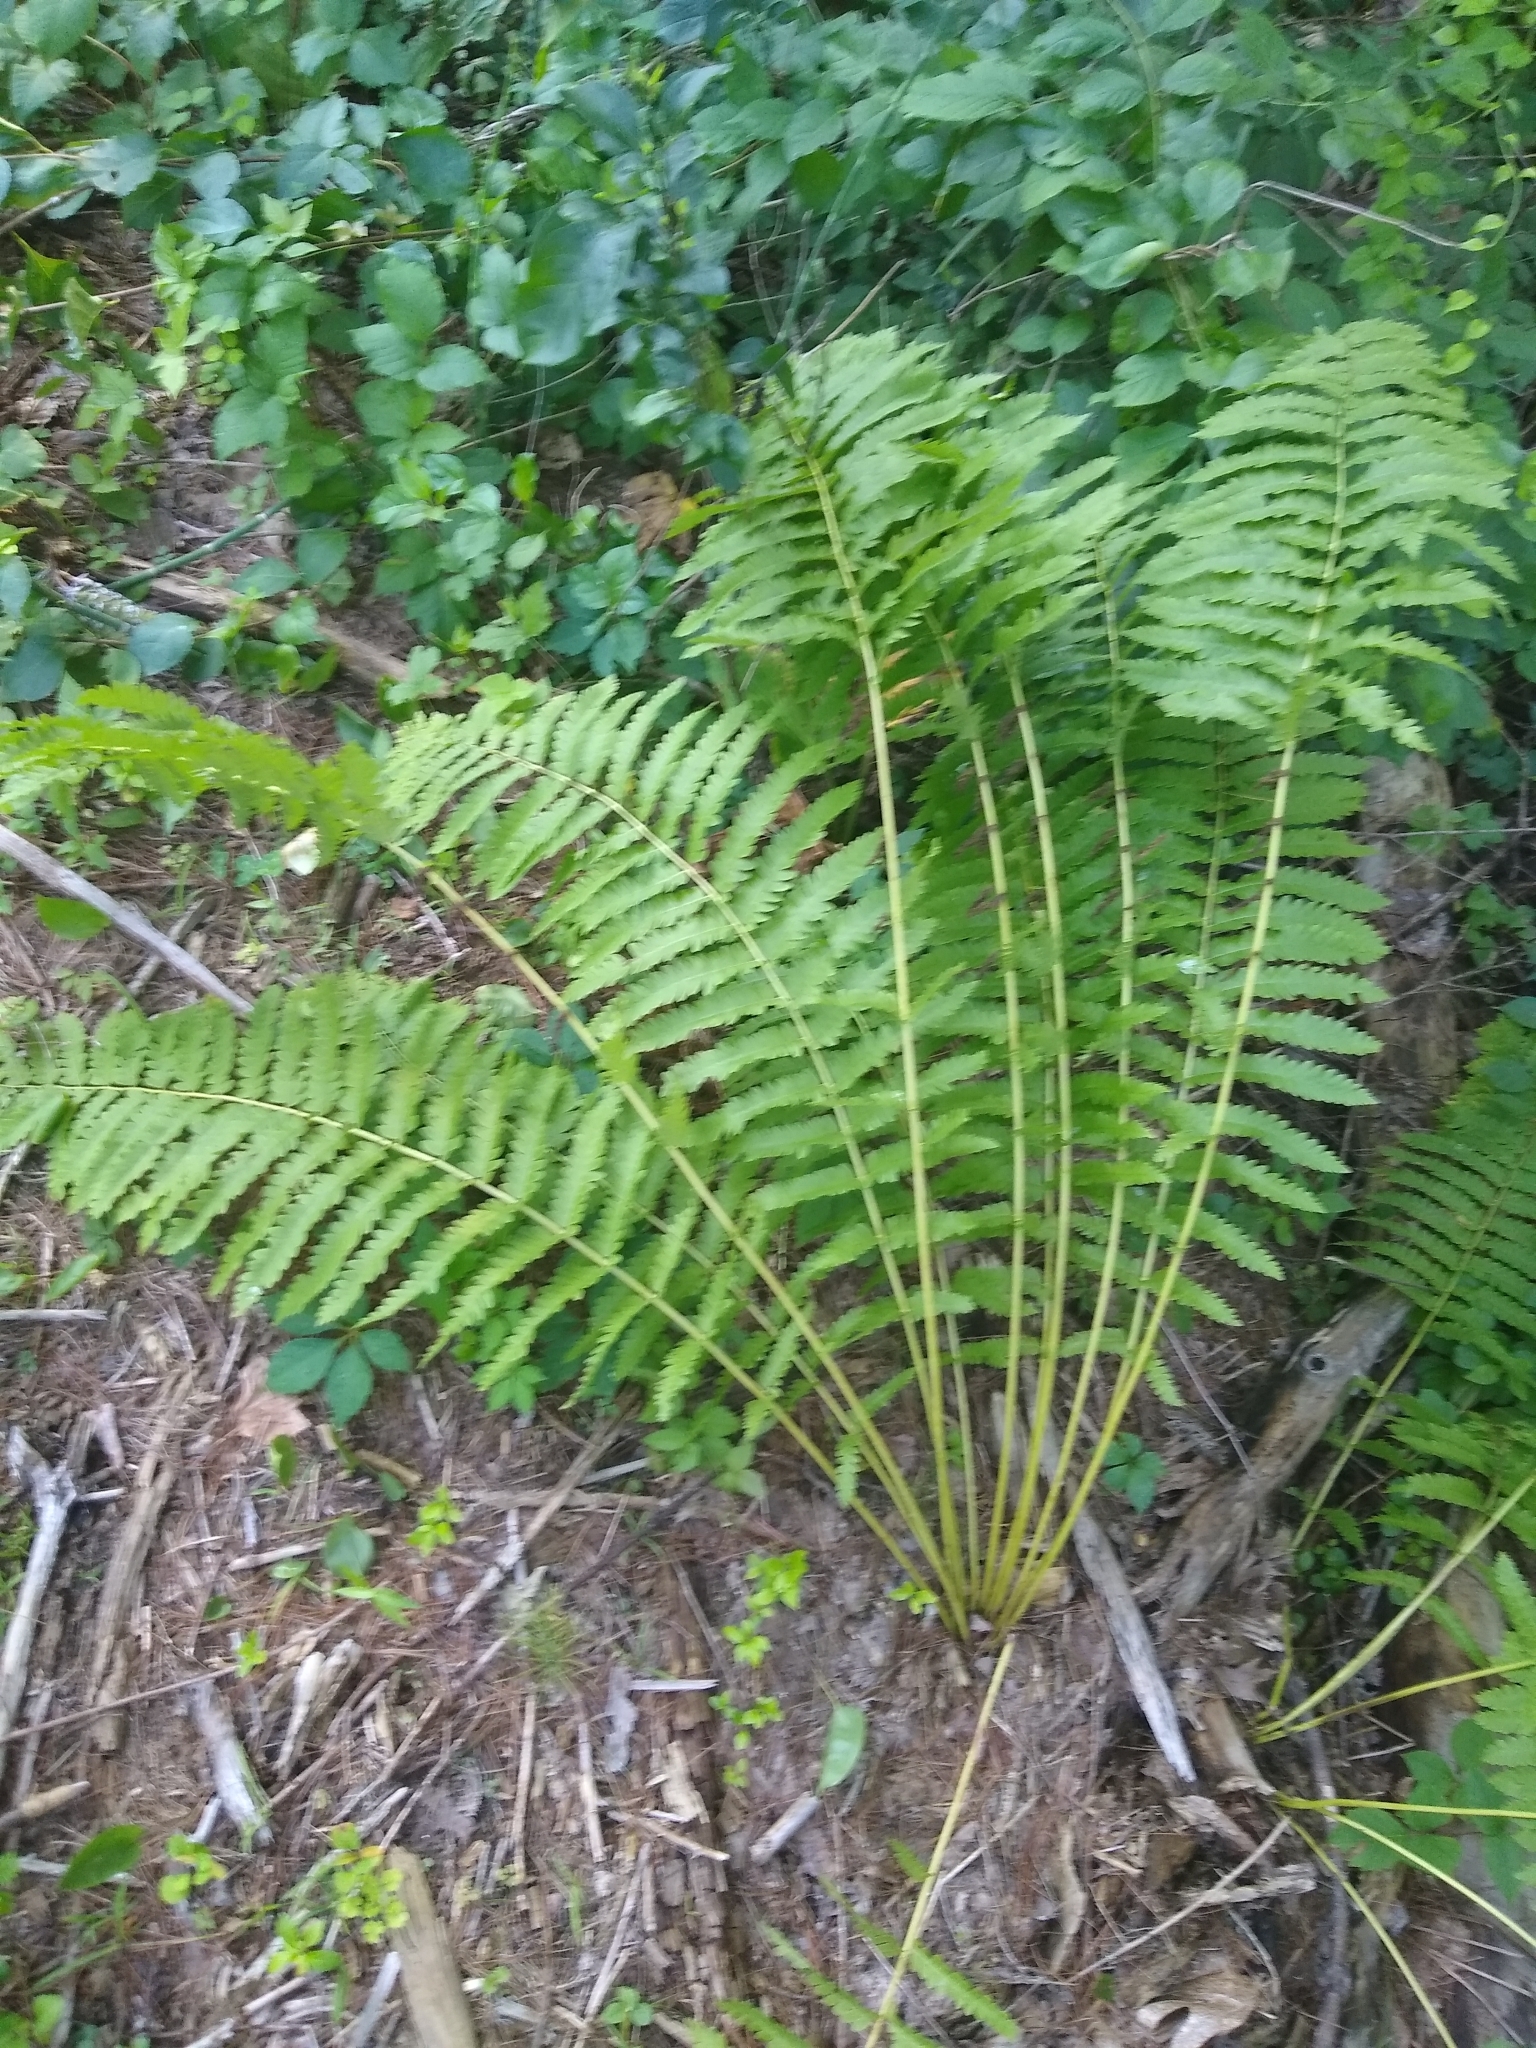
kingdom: Plantae
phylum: Tracheophyta
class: Polypodiopsida
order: Osmundales
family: Osmundaceae
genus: Claytosmunda
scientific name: Claytosmunda claytoniana
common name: Clayton's fern
